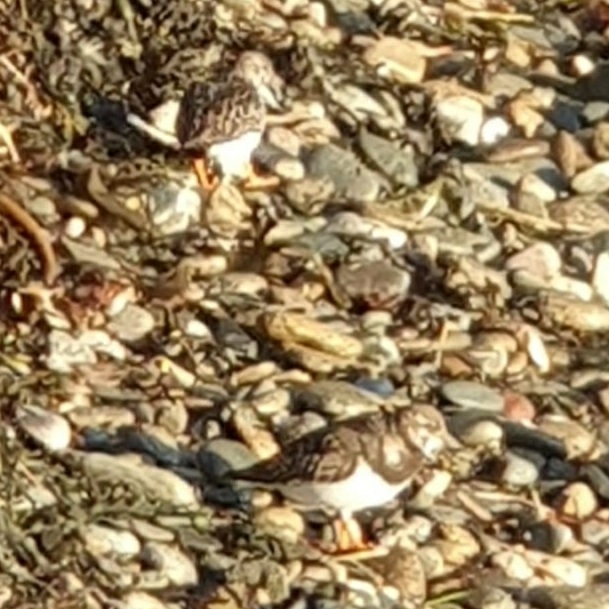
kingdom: Animalia
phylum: Chordata
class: Aves
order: Charadriiformes
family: Scolopacidae
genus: Arenaria
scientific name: Arenaria interpres
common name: Ruddy turnstone
